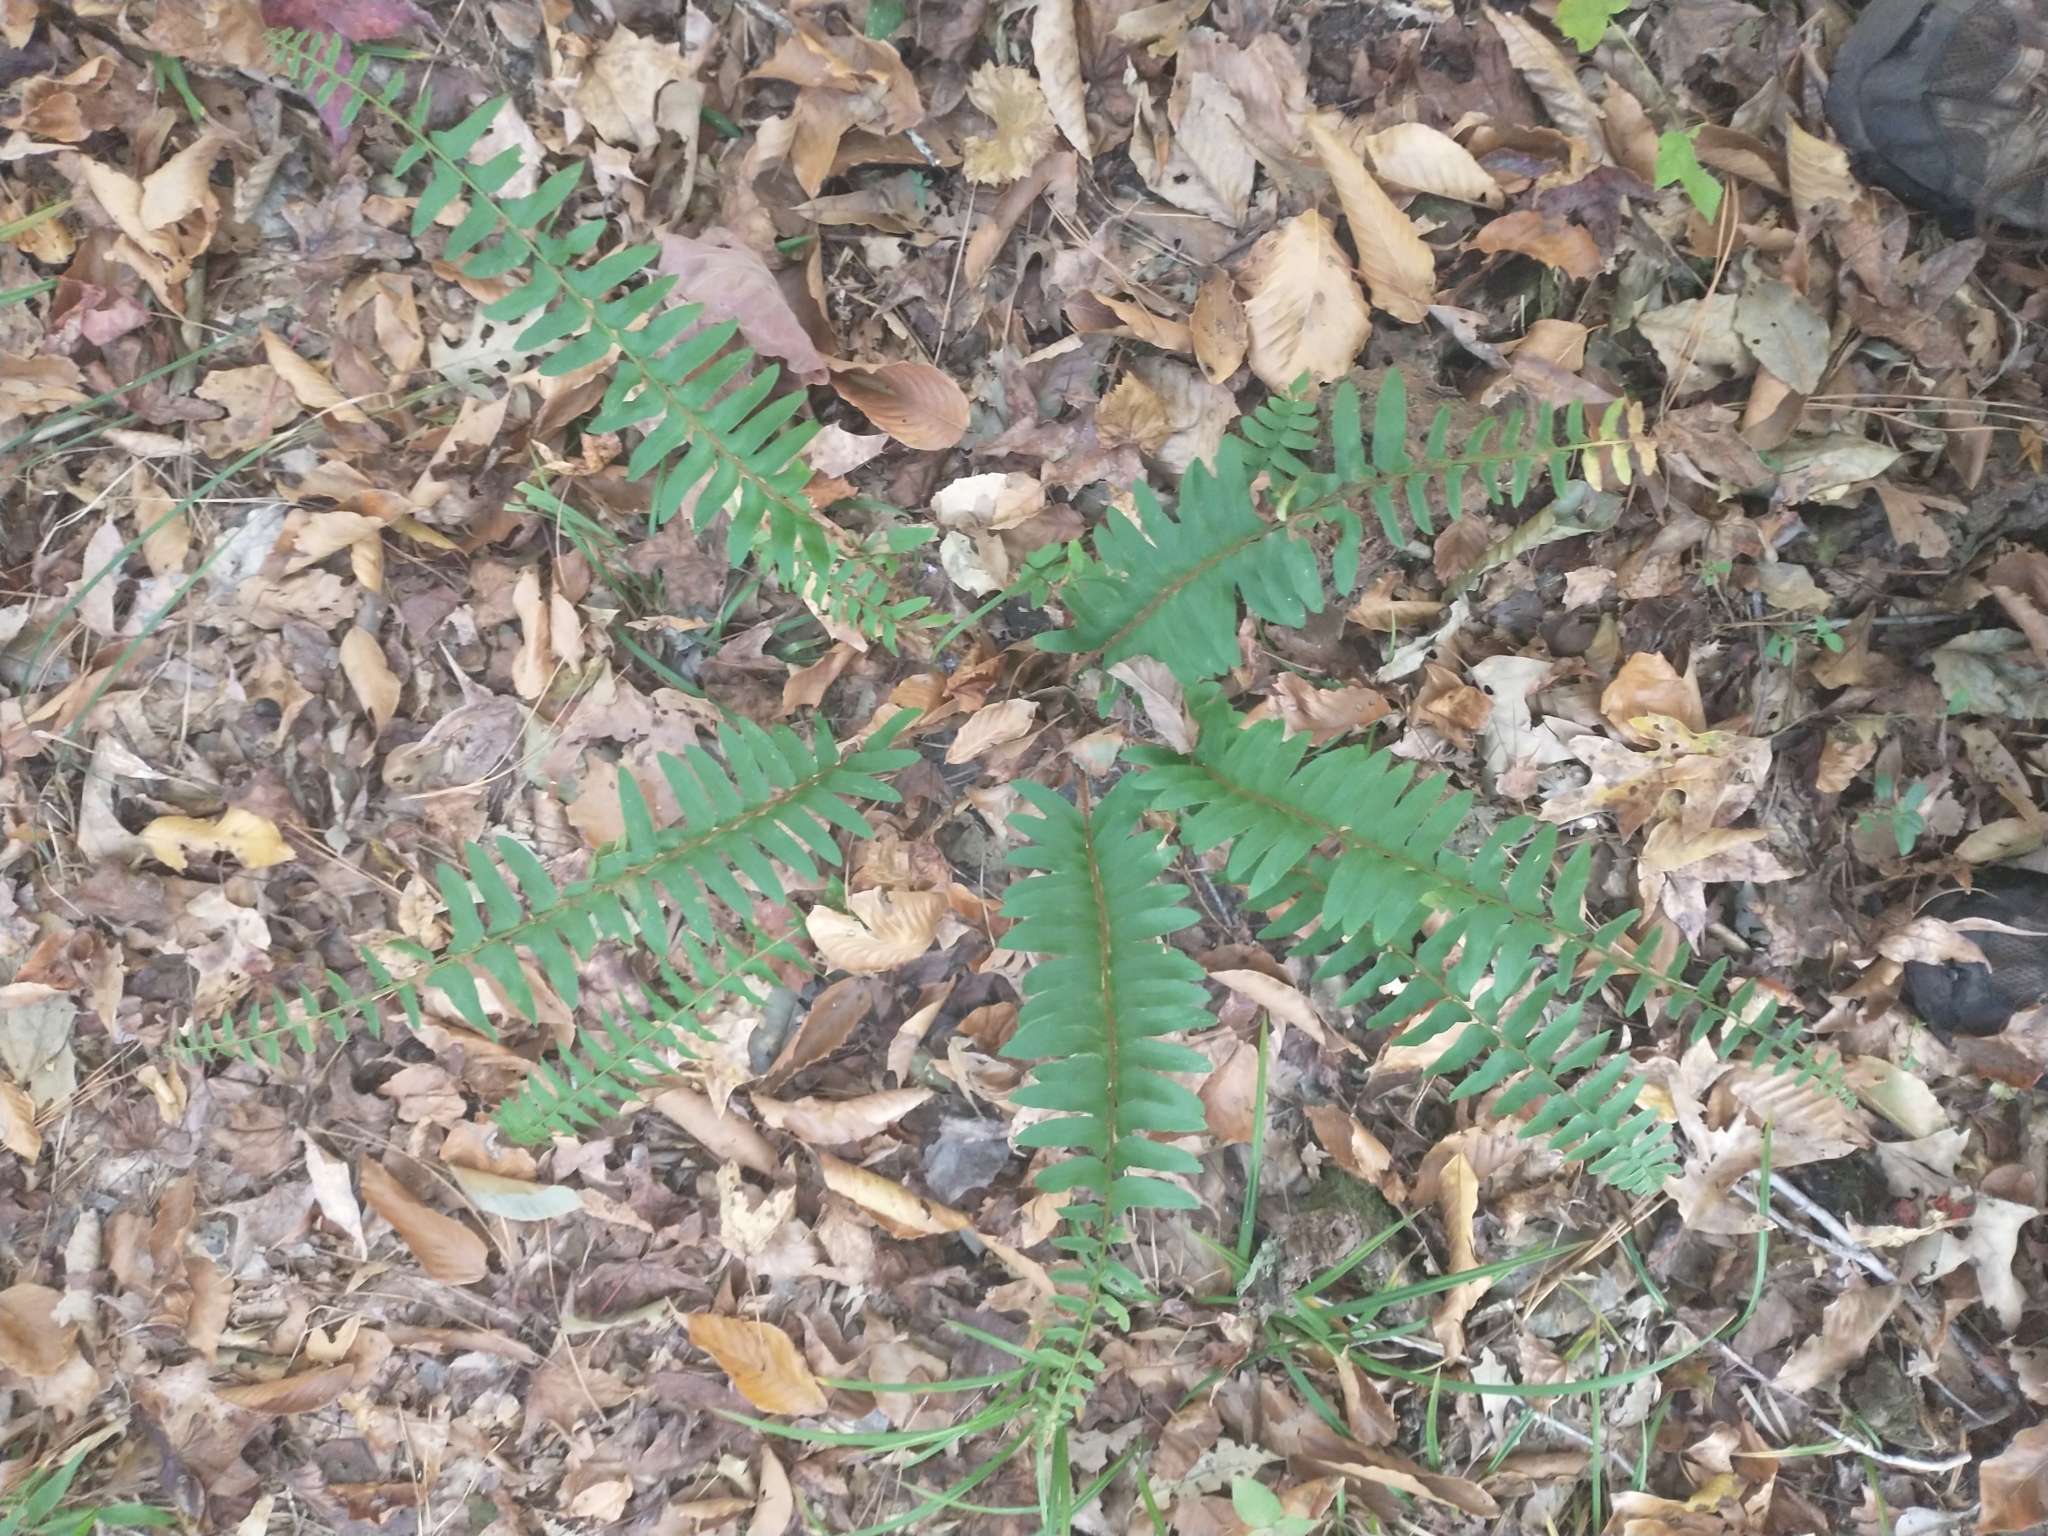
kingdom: Plantae
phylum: Tracheophyta
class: Polypodiopsida
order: Polypodiales
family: Dryopteridaceae
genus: Polystichum
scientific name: Polystichum acrostichoides
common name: Christmas fern
